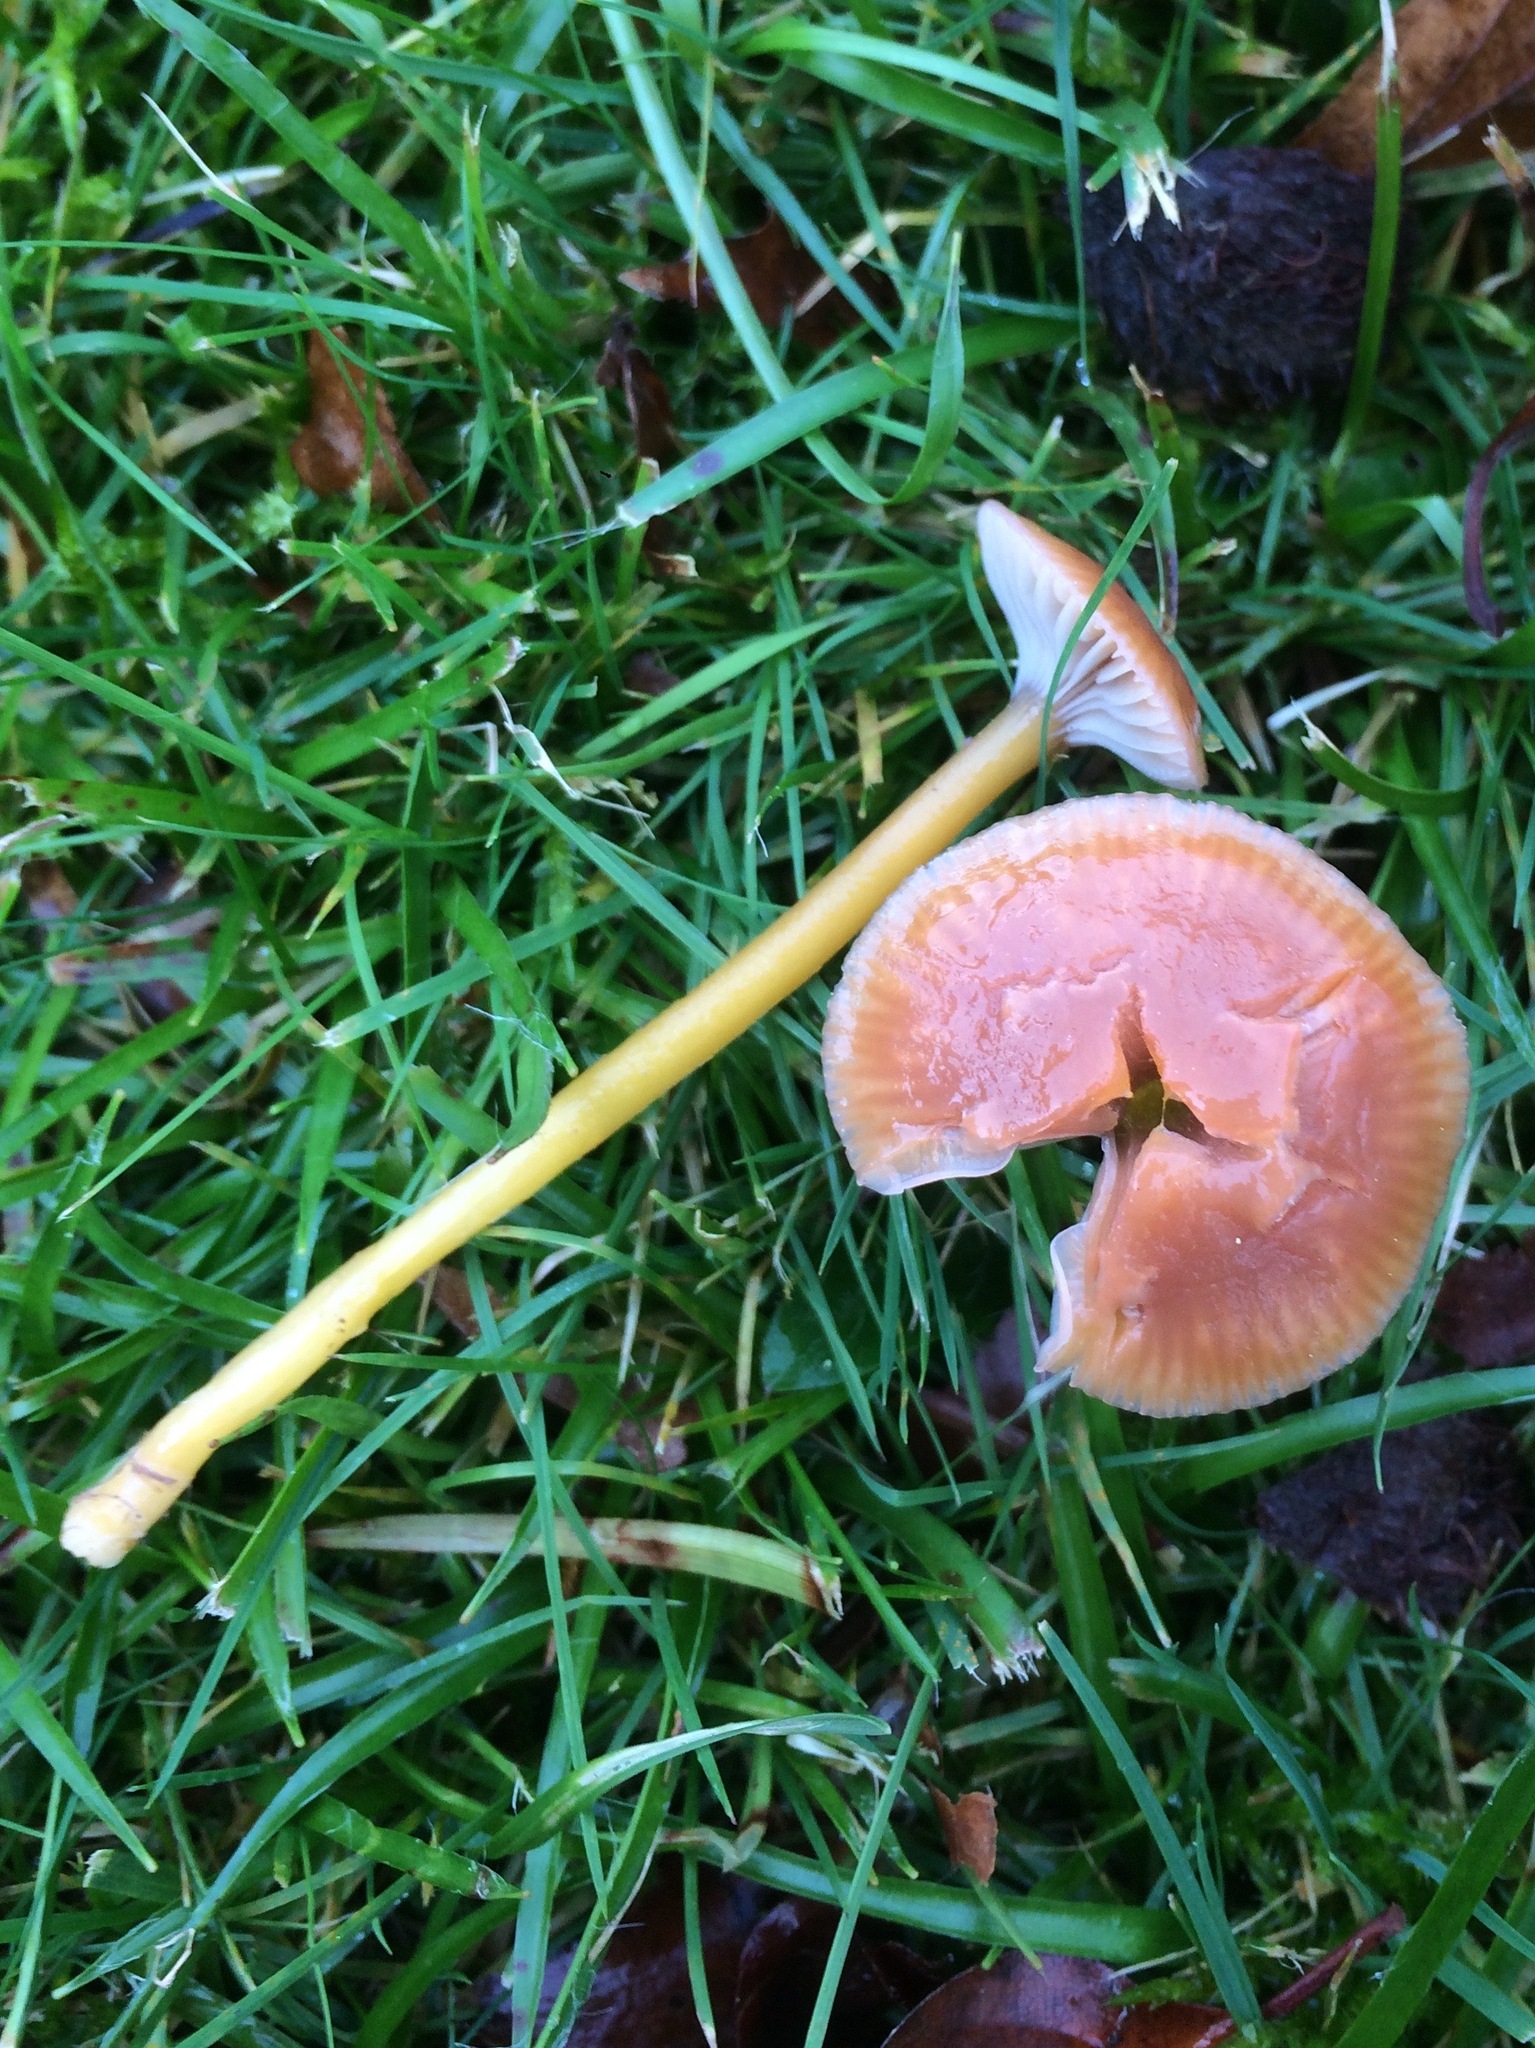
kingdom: Fungi
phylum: Basidiomycota
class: Agaricomycetes
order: Agaricales
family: Hygrophoraceae
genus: Gliophorus
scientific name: Gliophorus laetus
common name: Heath waxcap
